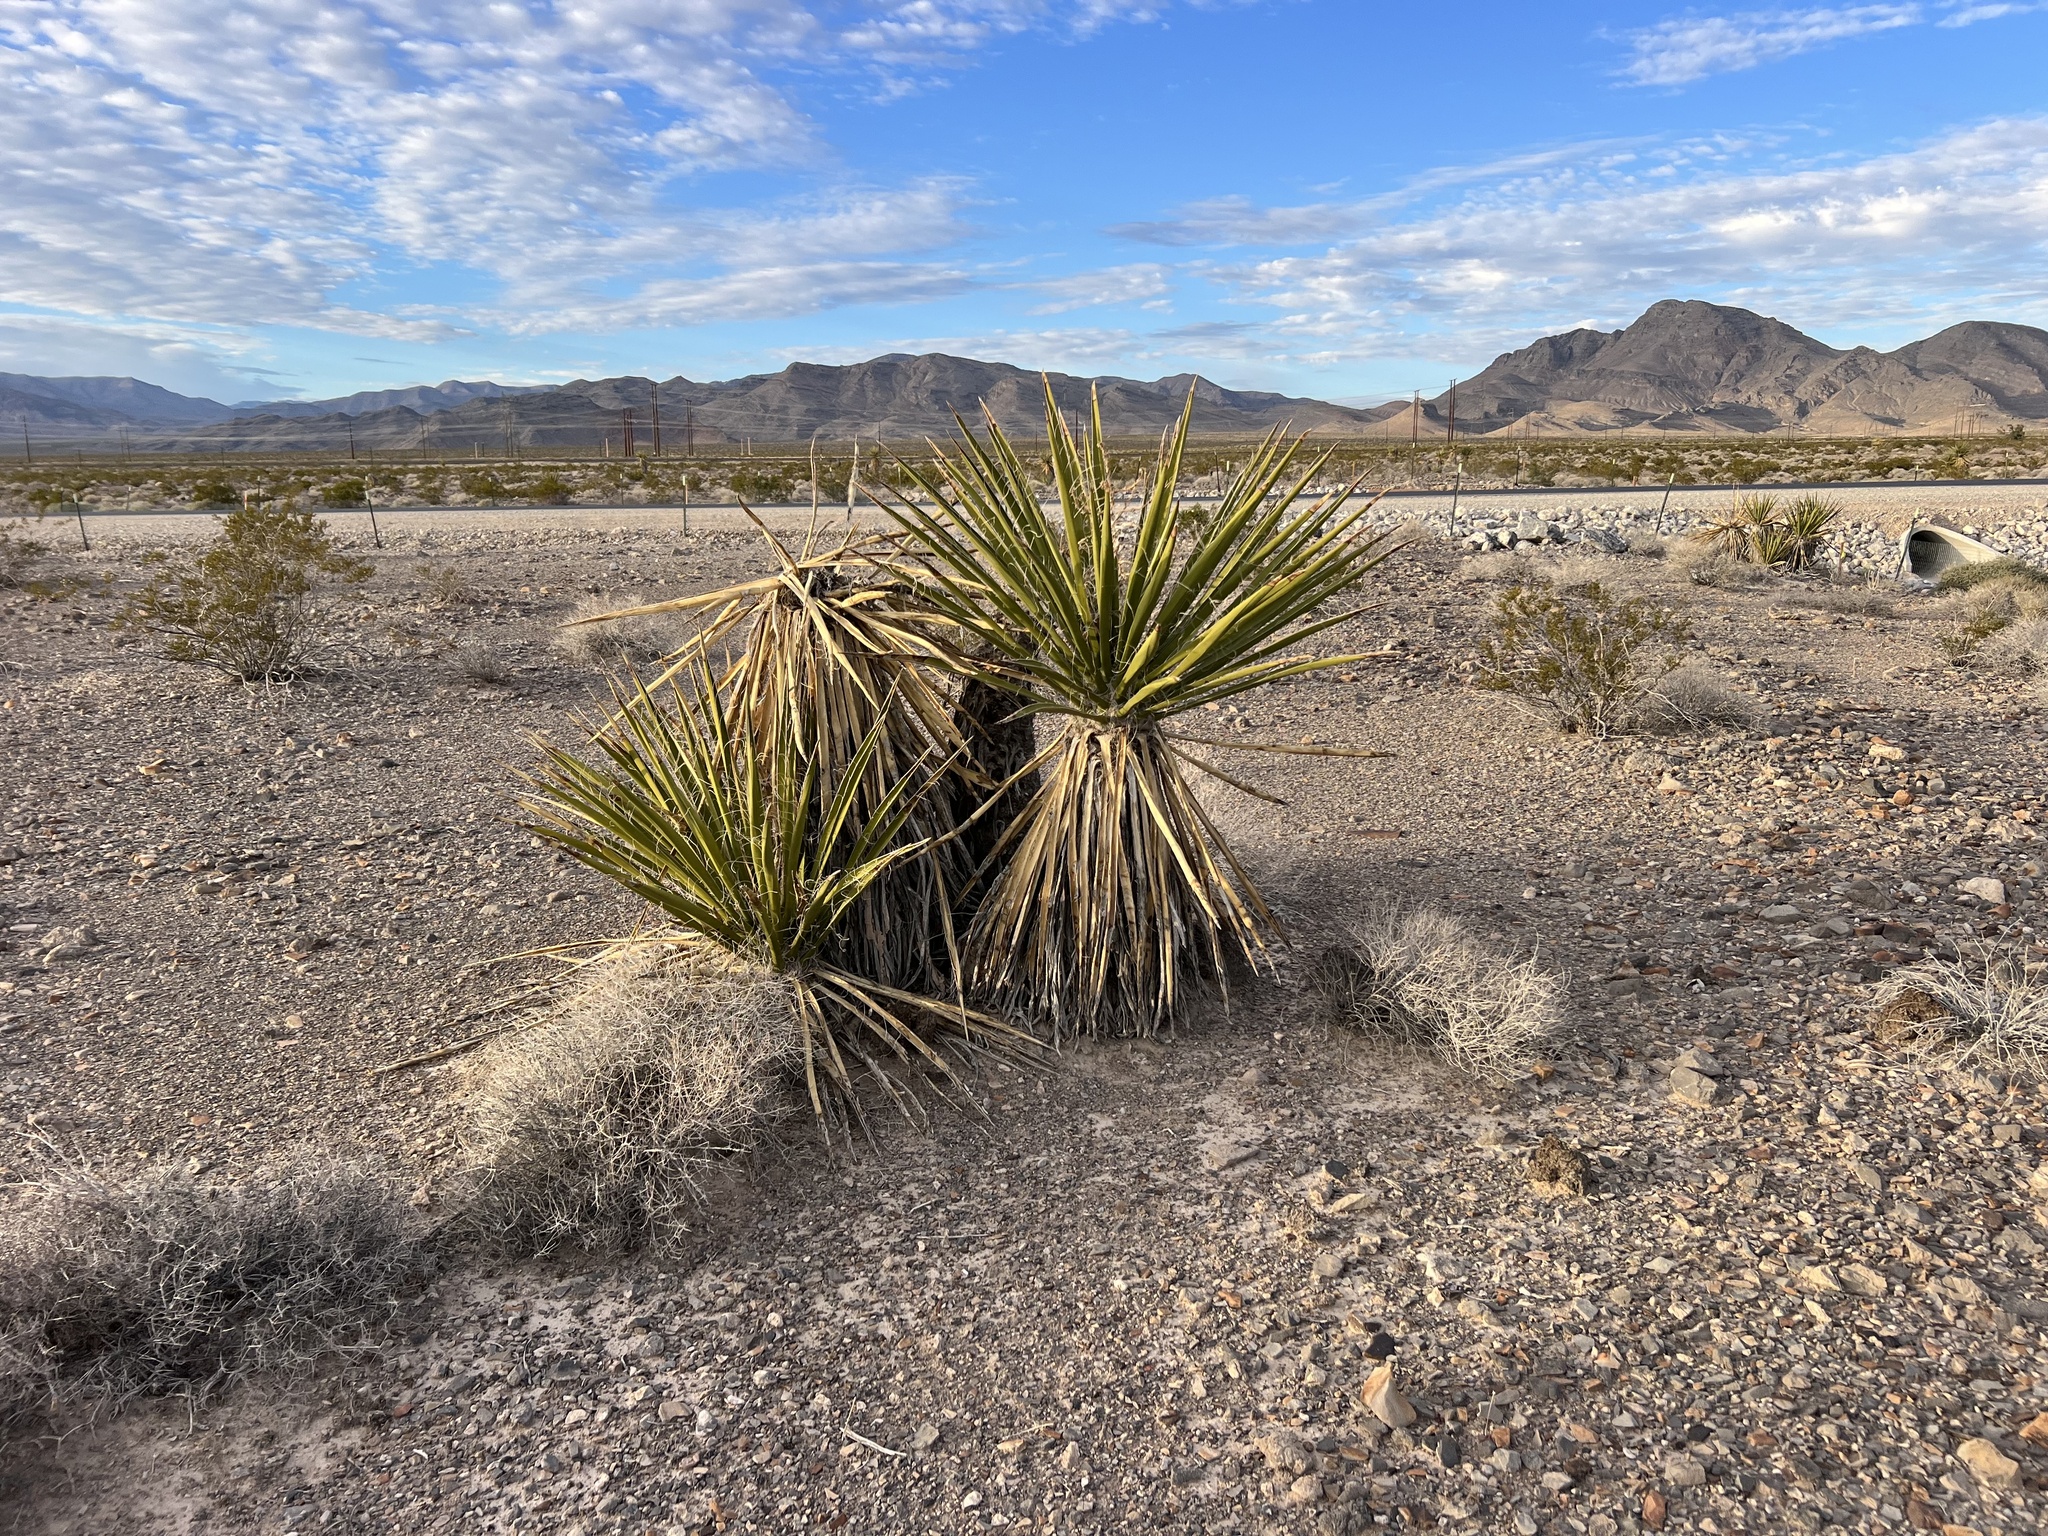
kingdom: Plantae
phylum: Tracheophyta
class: Liliopsida
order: Asparagales
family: Asparagaceae
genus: Yucca
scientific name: Yucca schidigera
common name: Mojave yucca
